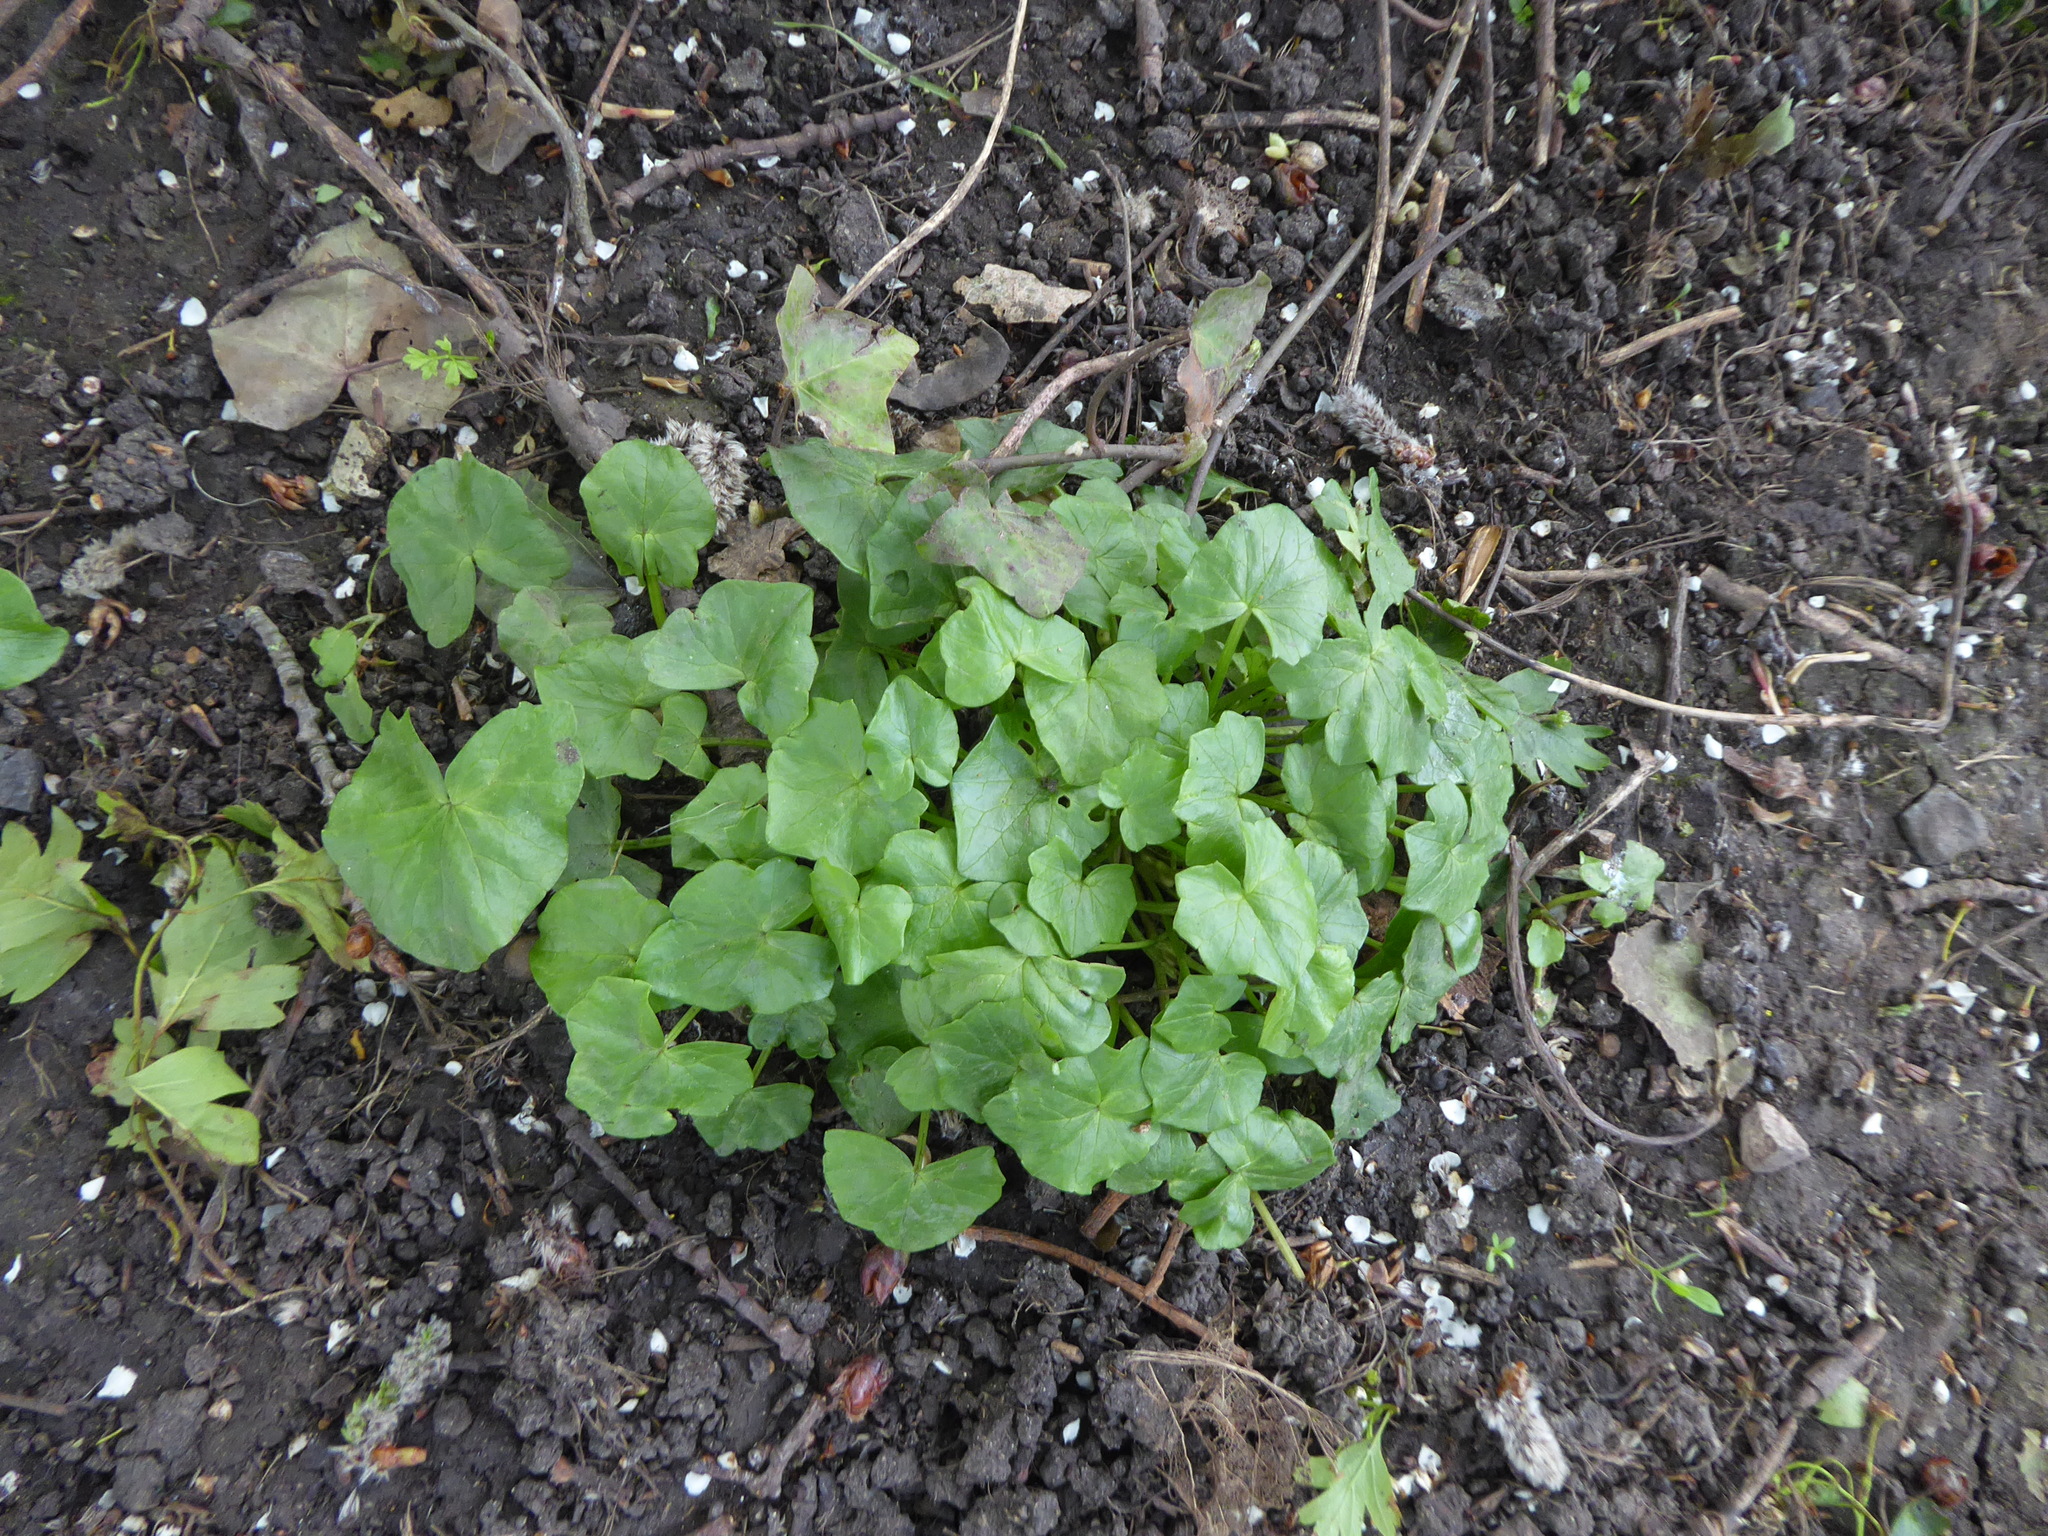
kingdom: Plantae
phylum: Tracheophyta
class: Magnoliopsida
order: Ranunculales
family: Ranunculaceae
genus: Ficaria
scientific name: Ficaria verna
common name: Lesser celandine
